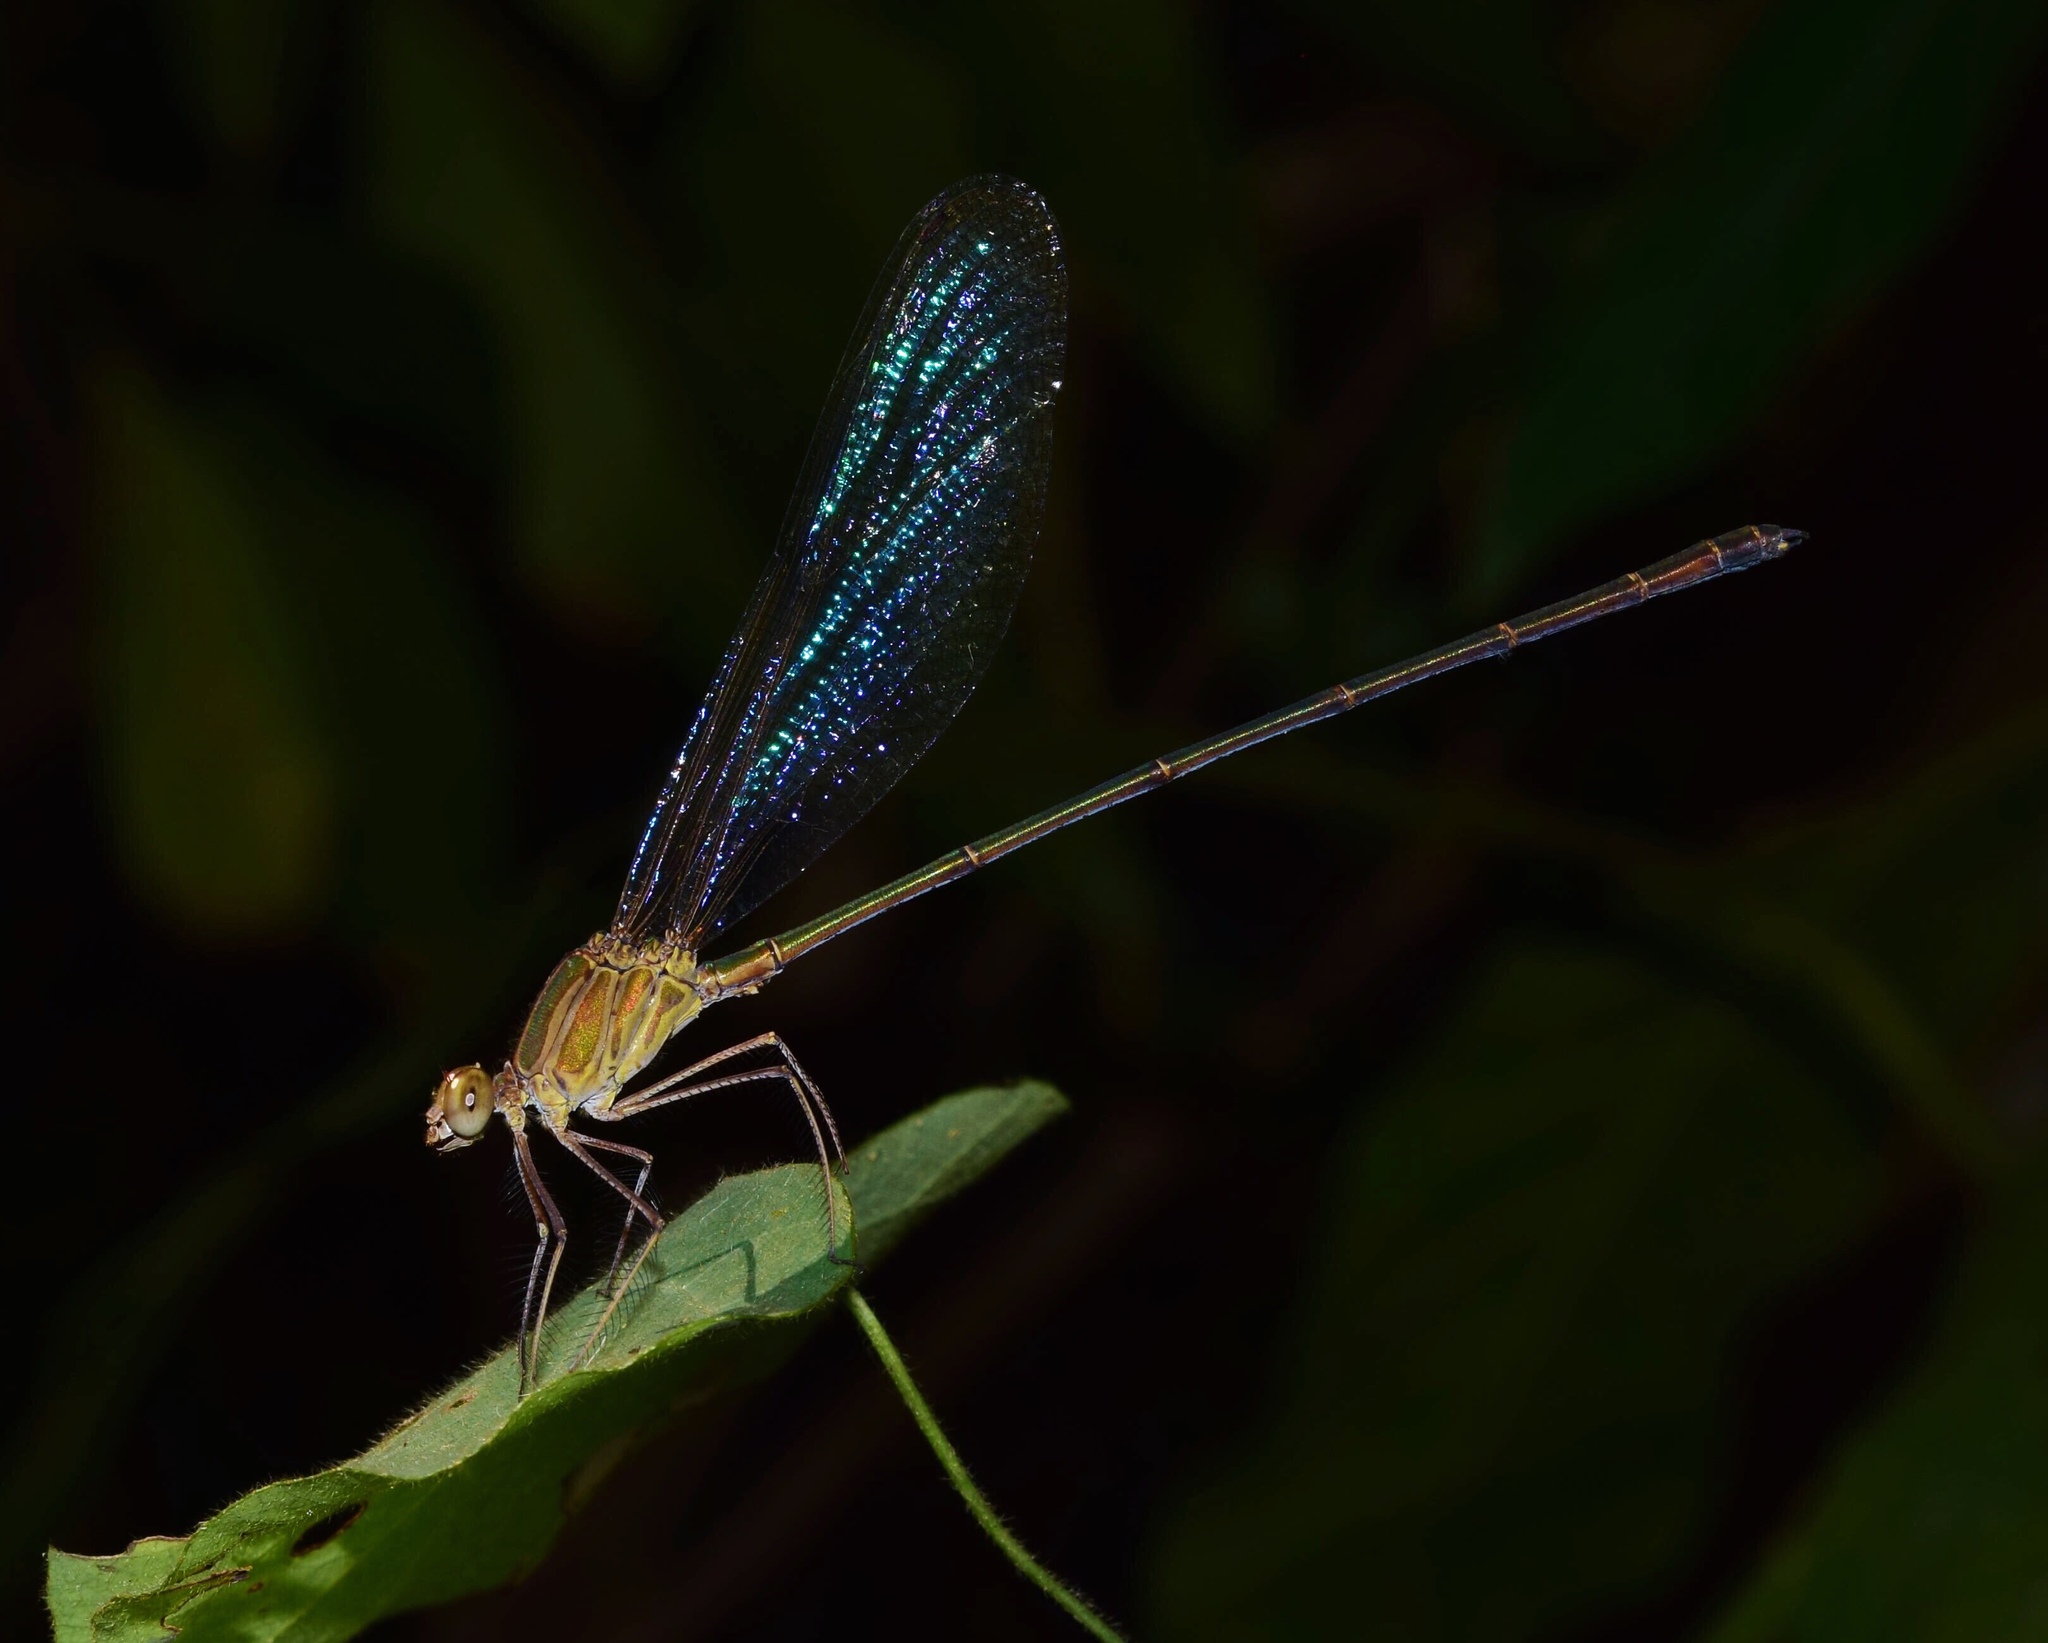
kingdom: Animalia
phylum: Arthropoda
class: Insecta
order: Odonata
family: Calopterygidae
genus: Phaon
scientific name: Phaon iridipennis
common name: Glistening demoiselle
